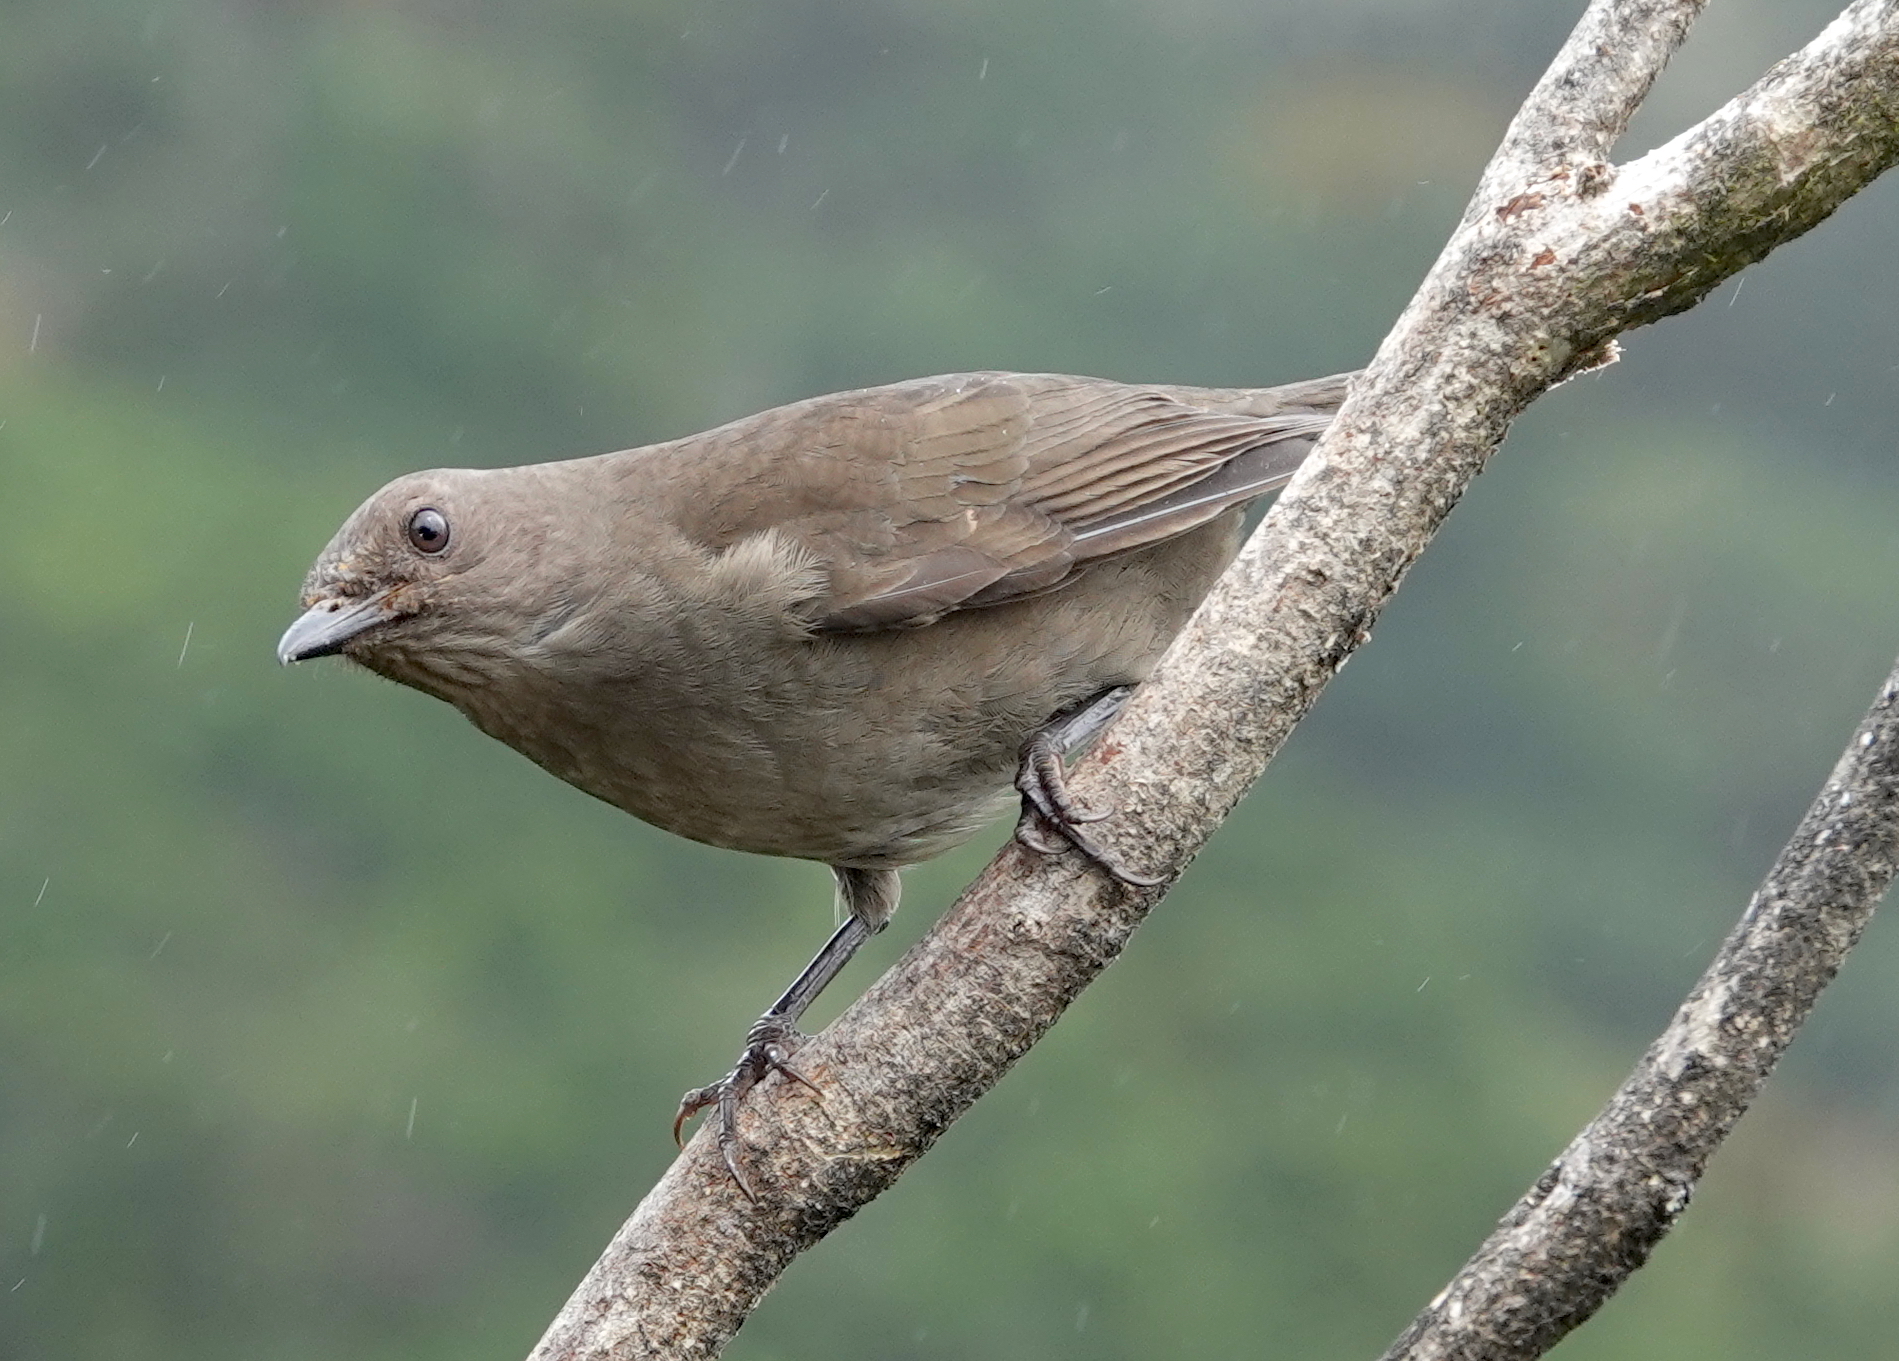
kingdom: Animalia
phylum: Chordata
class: Aves
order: Passeriformes
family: Turdidae
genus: Turdus
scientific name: Turdus plebejus
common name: Mountain thrush
